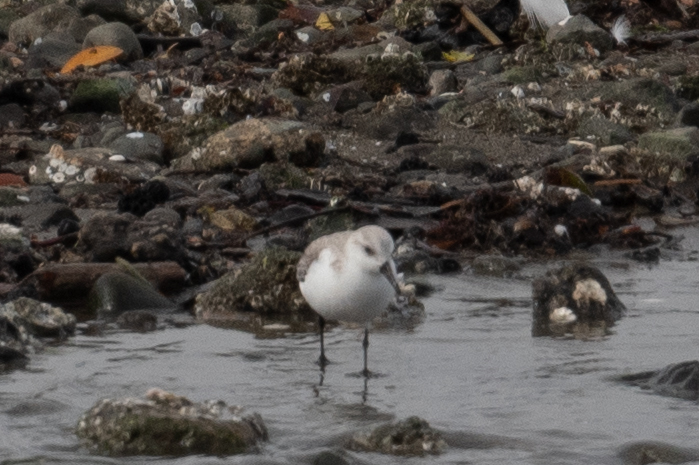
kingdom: Animalia
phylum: Chordata
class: Aves
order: Charadriiformes
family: Scolopacidae
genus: Calidris
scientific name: Calidris alba
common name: Sanderling
